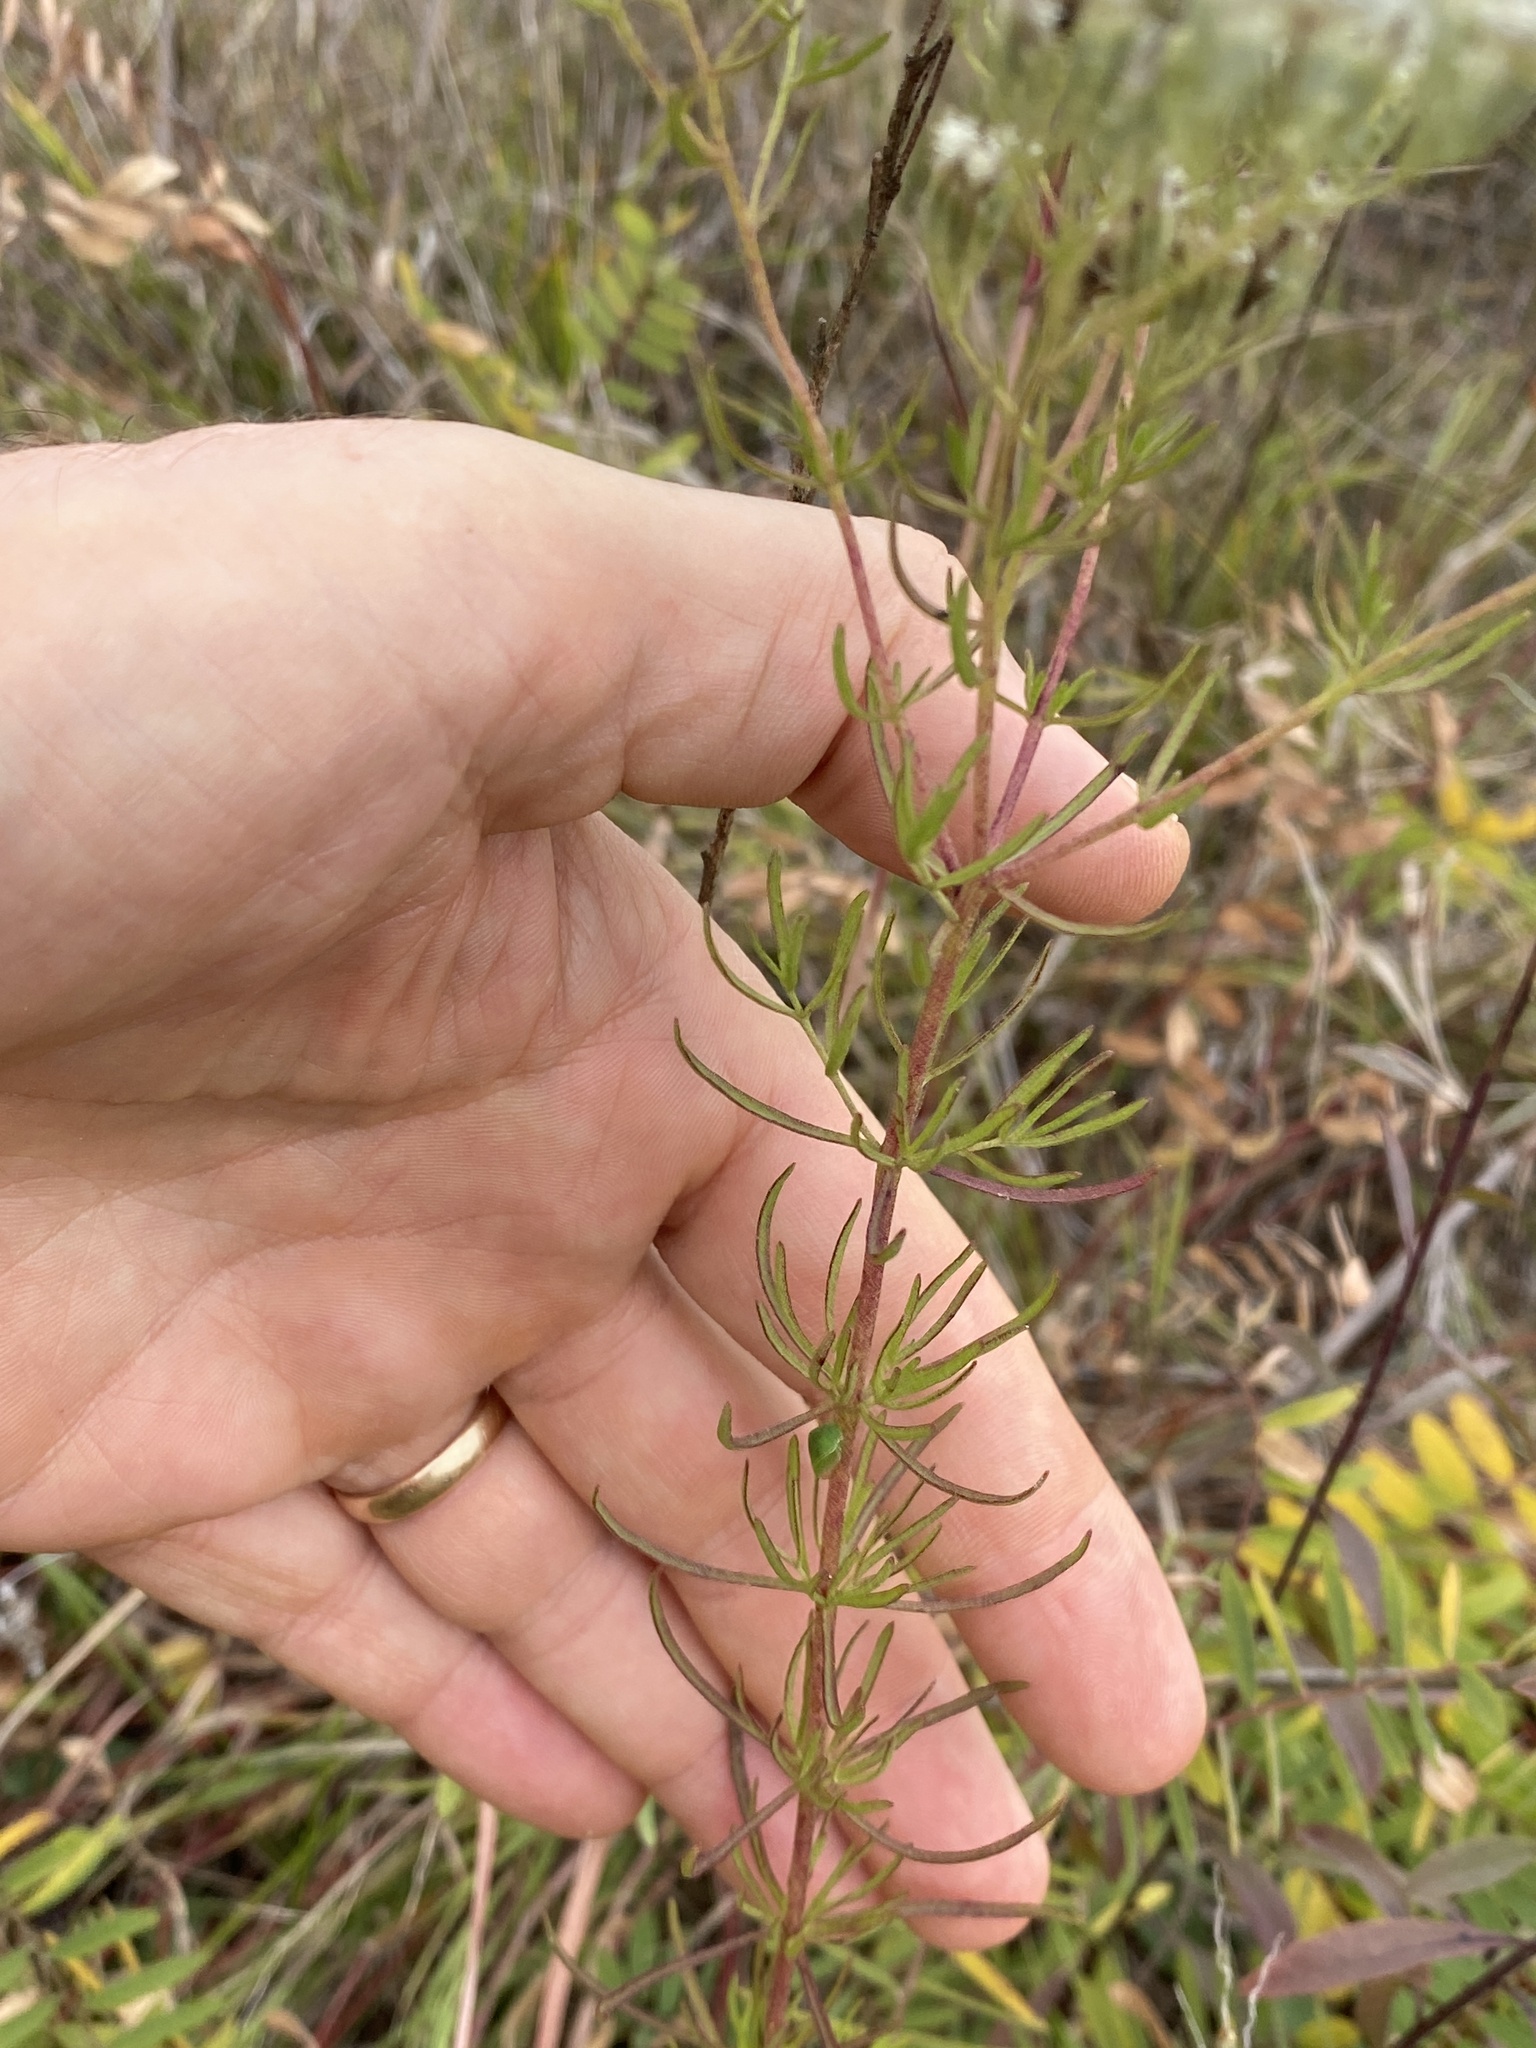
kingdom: Plantae
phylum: Tracheophyta
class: Magnoliopsida
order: Asterales
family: Asteraceae
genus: Eupatorium
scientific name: Eupatorium hyssopifolium
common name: Hyssop-leaf thoroughwort
